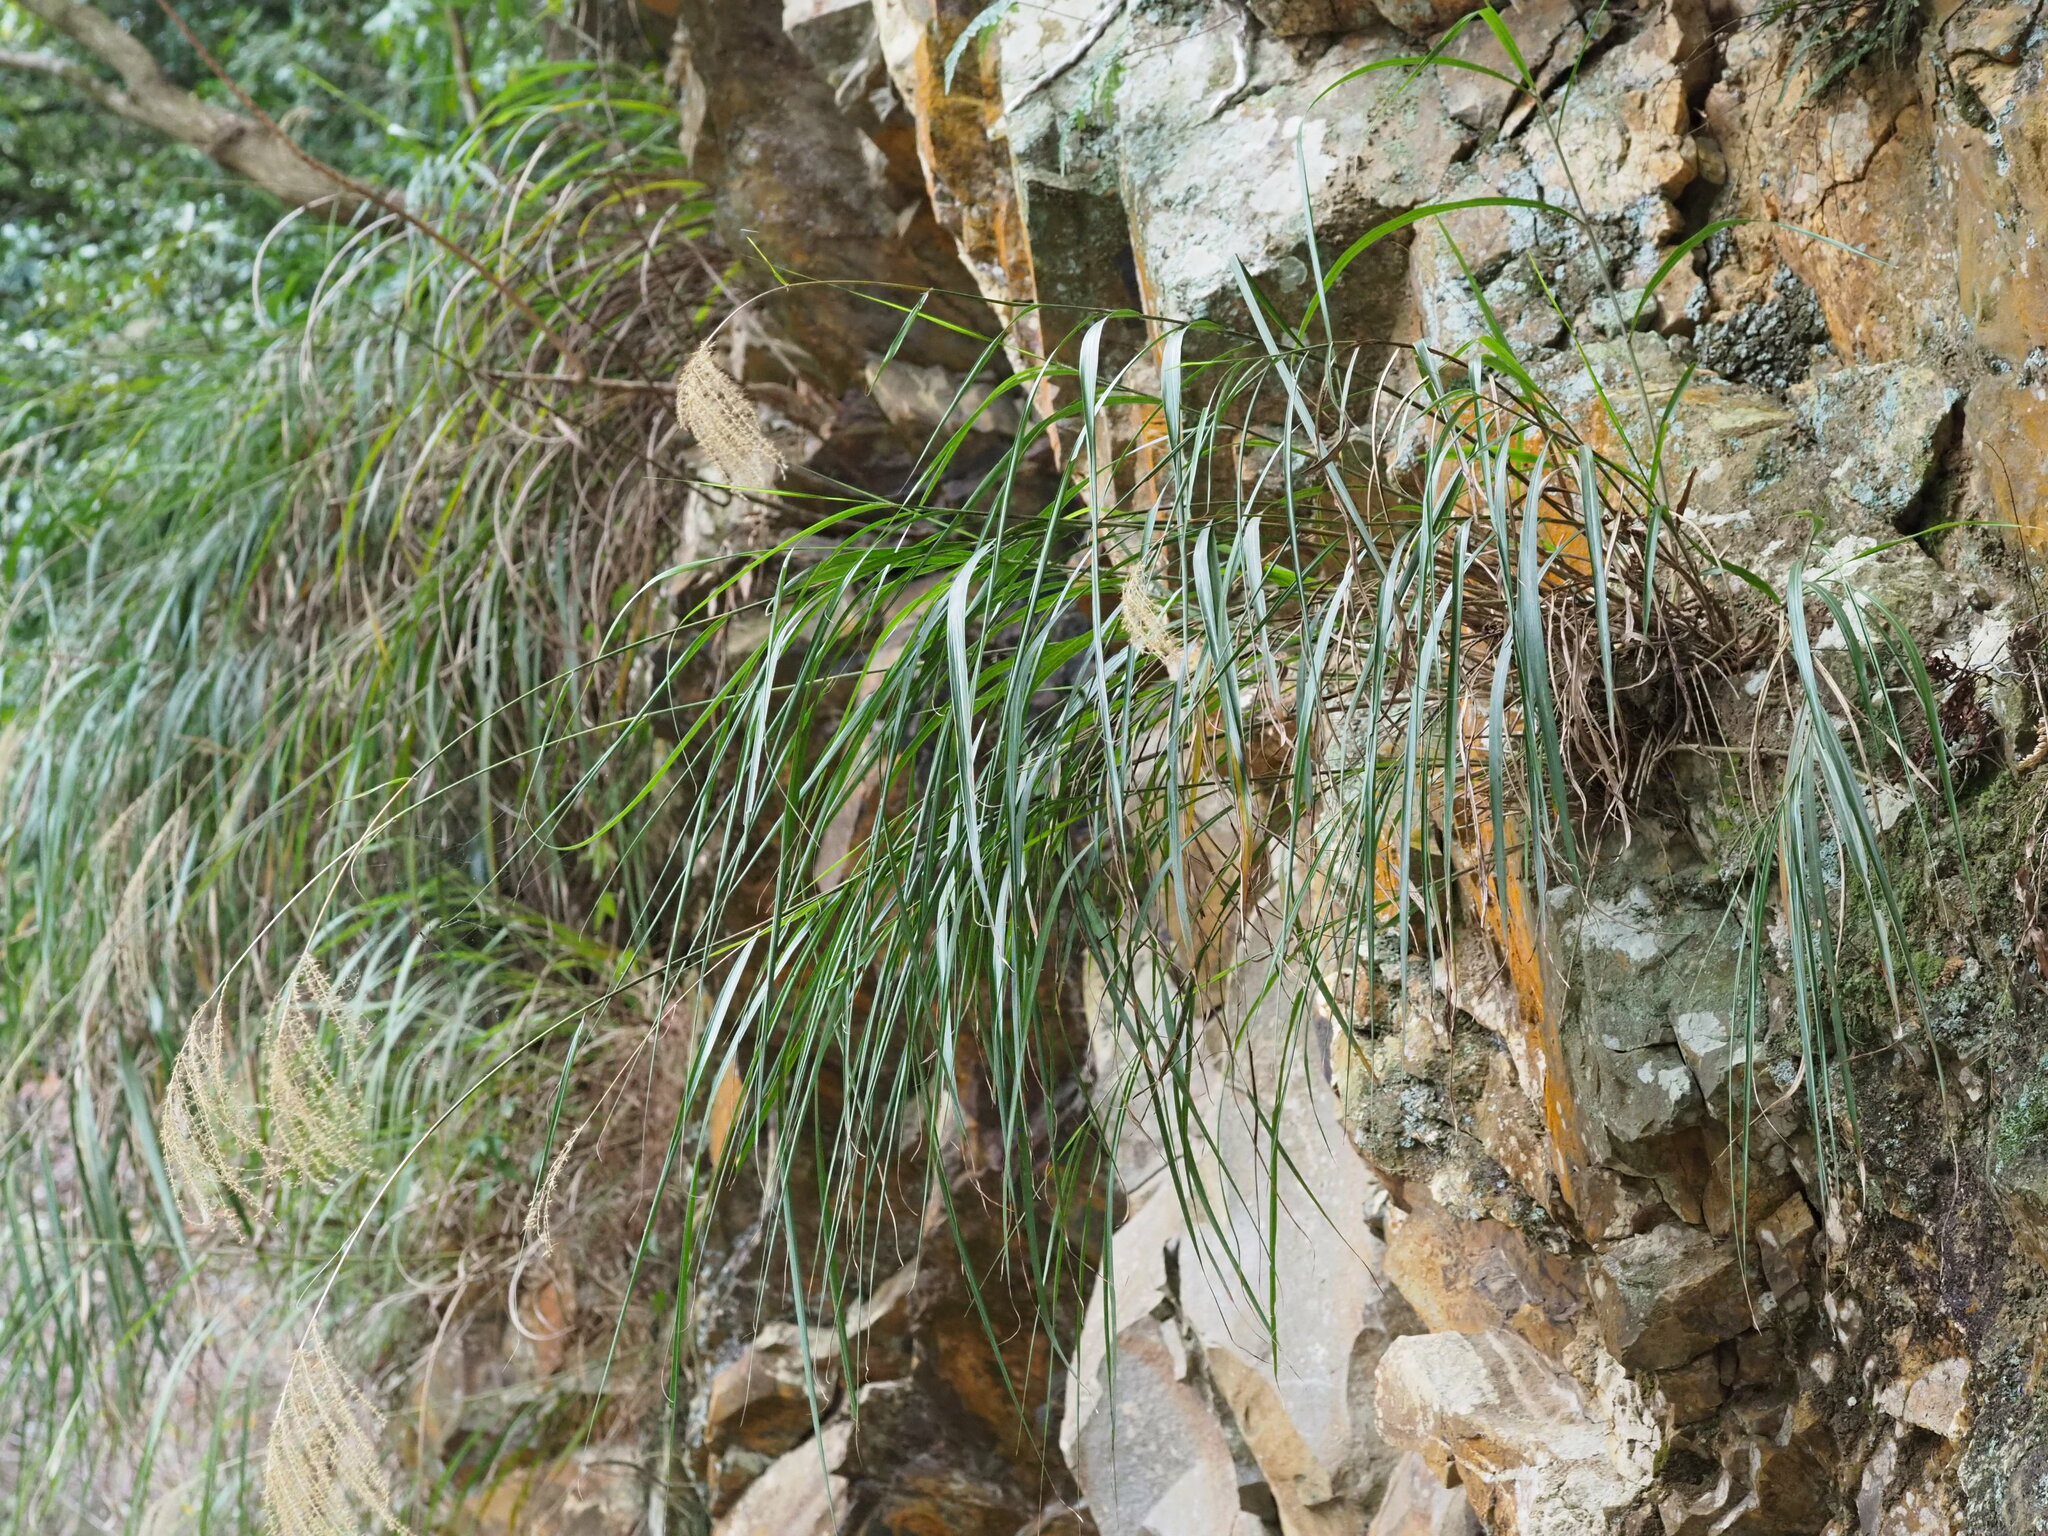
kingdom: Plantae
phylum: Tracheophyta
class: Liliopsida
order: Poales
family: Poaceae
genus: Miscanthus
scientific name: Miscanthus sinensis
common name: Chinese silvergrass
